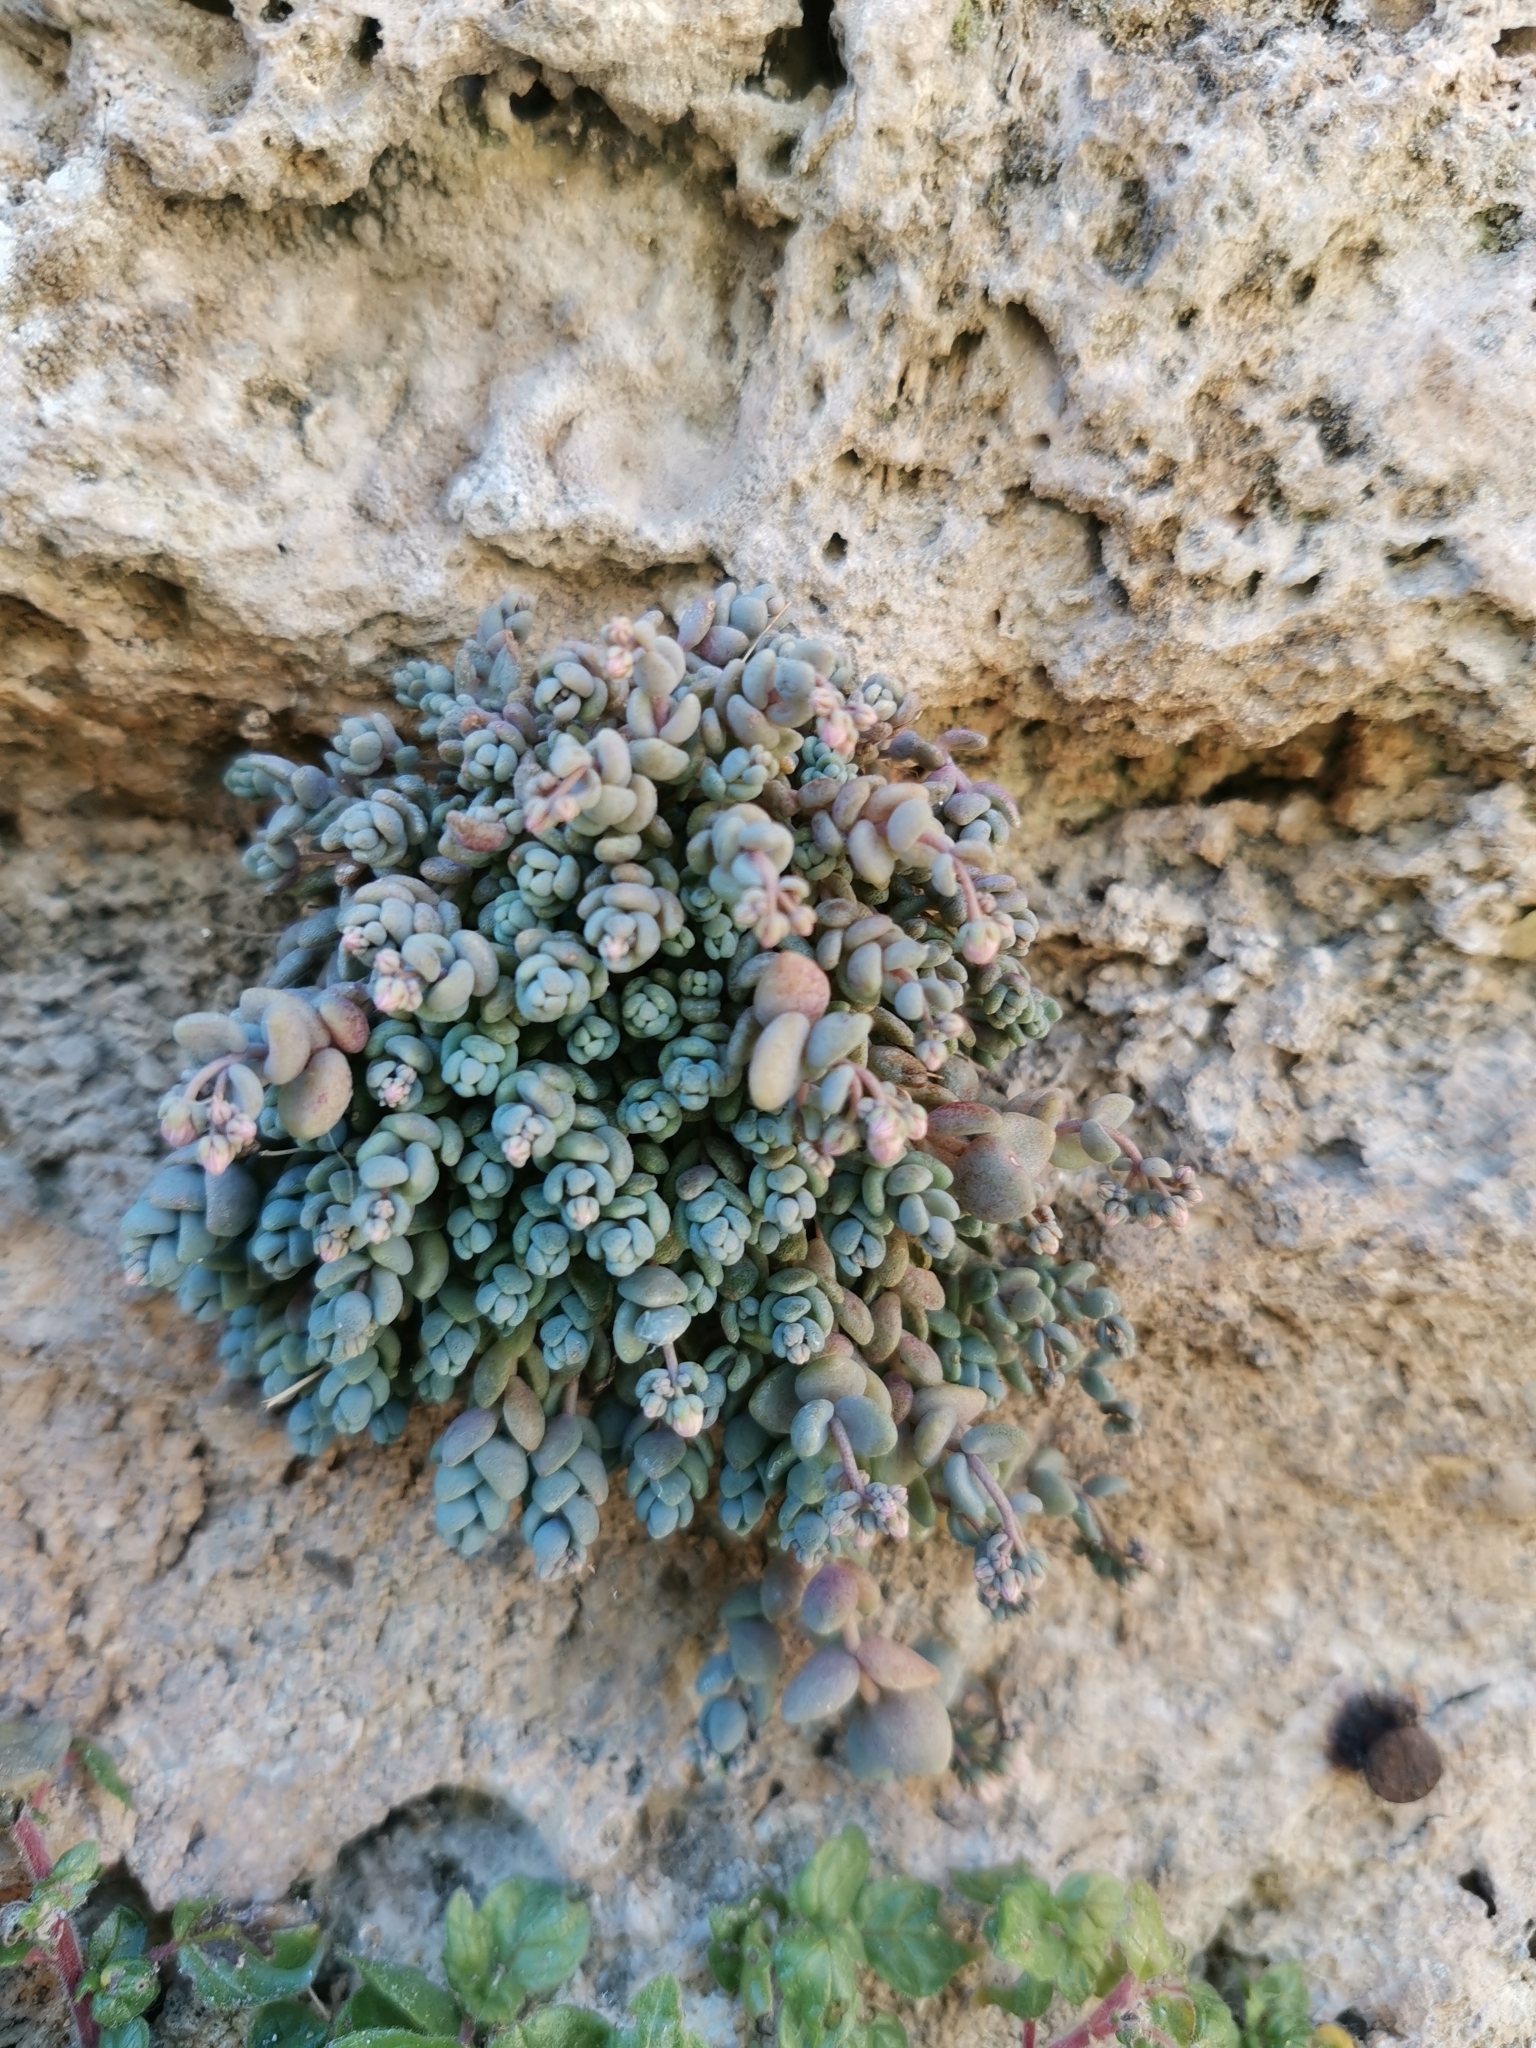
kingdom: Plantae
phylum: Tracheophyta
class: Magnoliopsida
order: Saxifragales
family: Crassulaceae
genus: Sedum
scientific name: Sedum dasyphyllum
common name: Thick-leaf stonecrop
